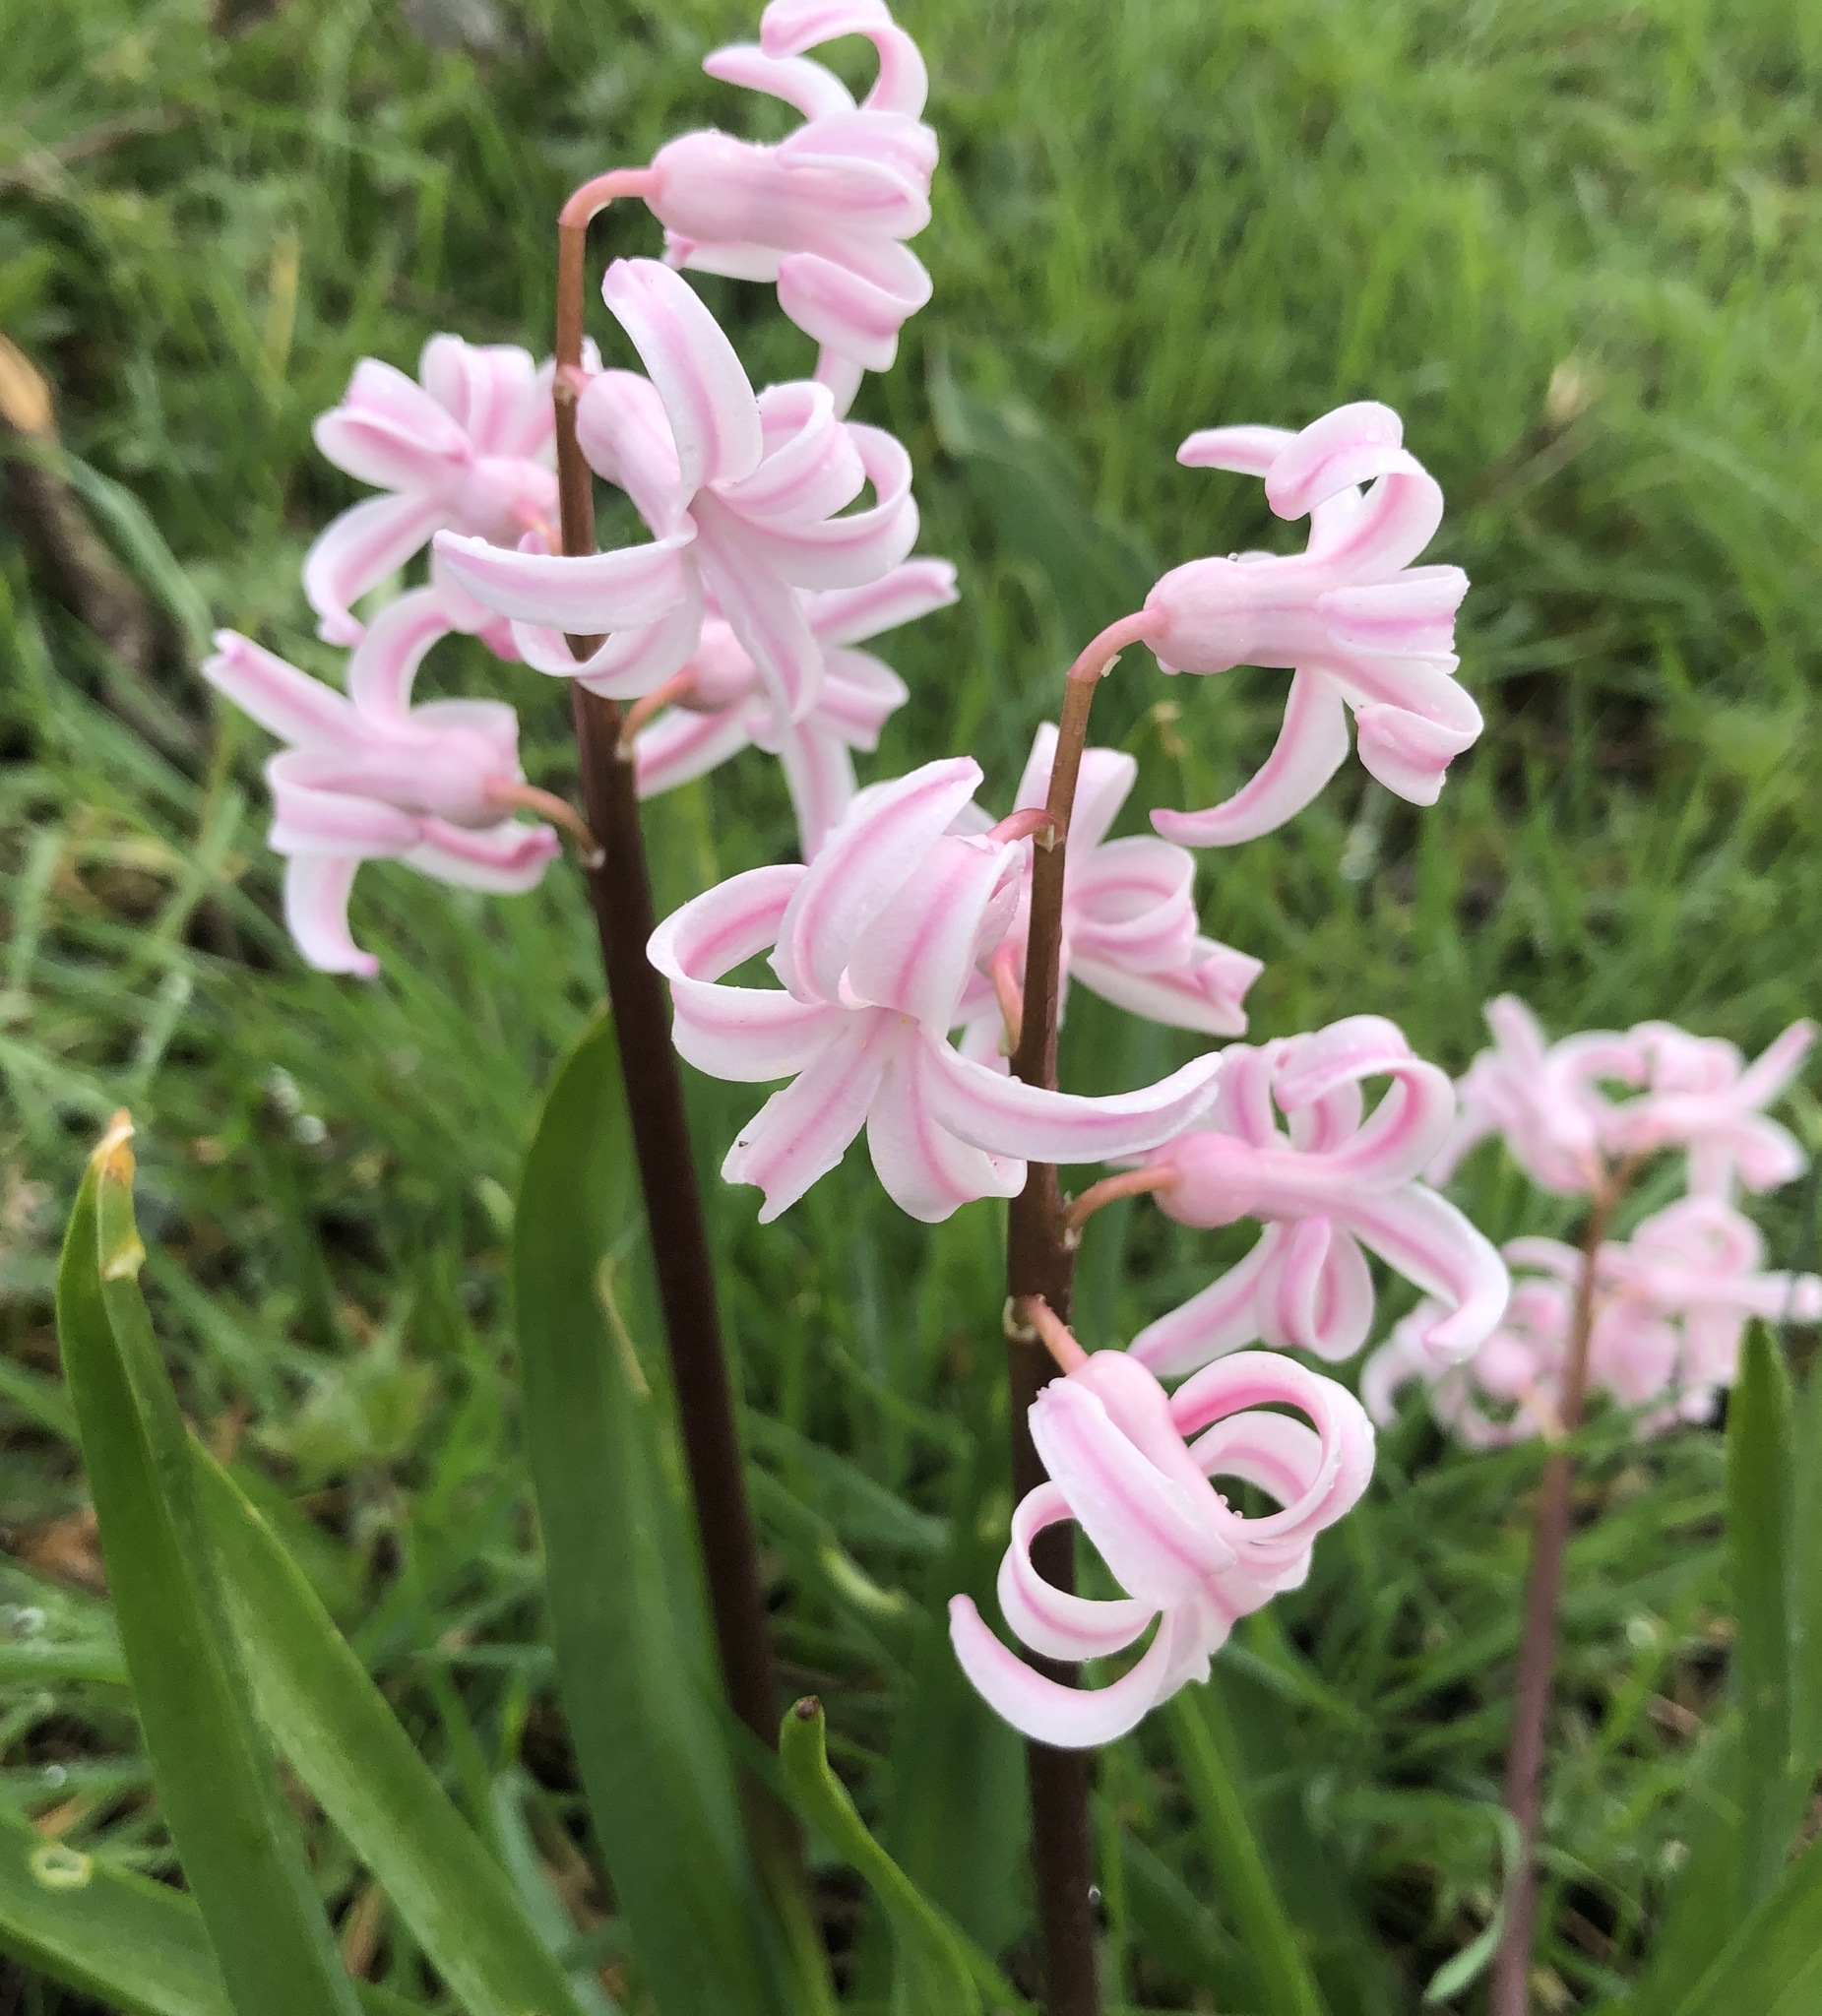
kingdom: Plantae
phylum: Tracheophyta
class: Liliopsida
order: Asparagales
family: Asparagaceae
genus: Hyacinthus
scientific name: Hyacinthus orientalis
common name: Hyacinth
